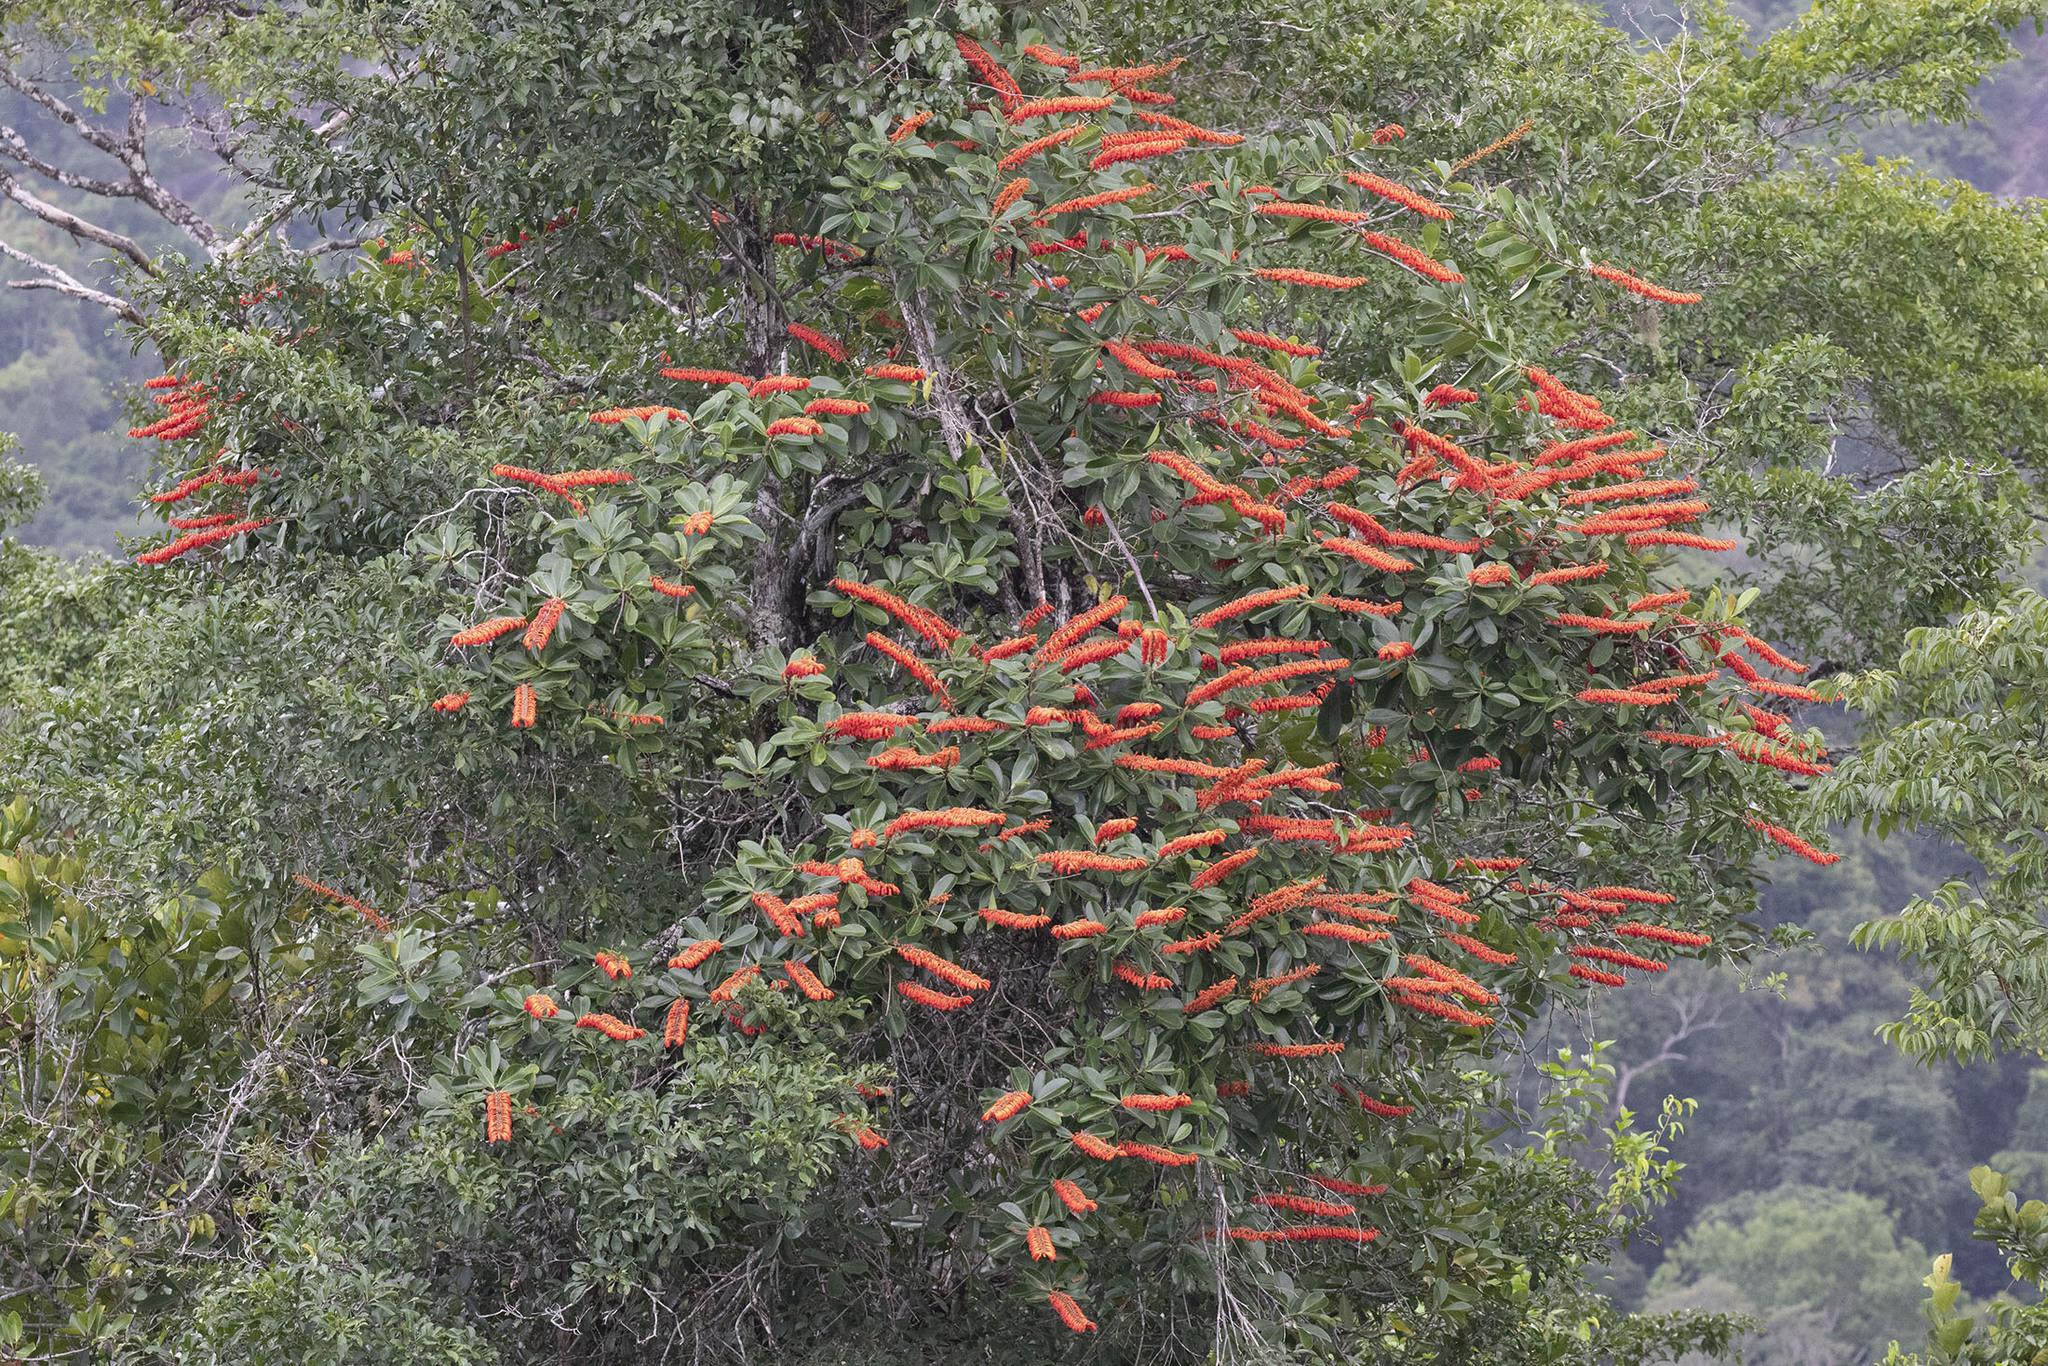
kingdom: Plantae
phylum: Tracheophyta
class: Magnoliopsida
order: Ericales
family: Marcgraviaceae
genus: Norantea
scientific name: Norantea guianensis
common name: Red hot poker vine
